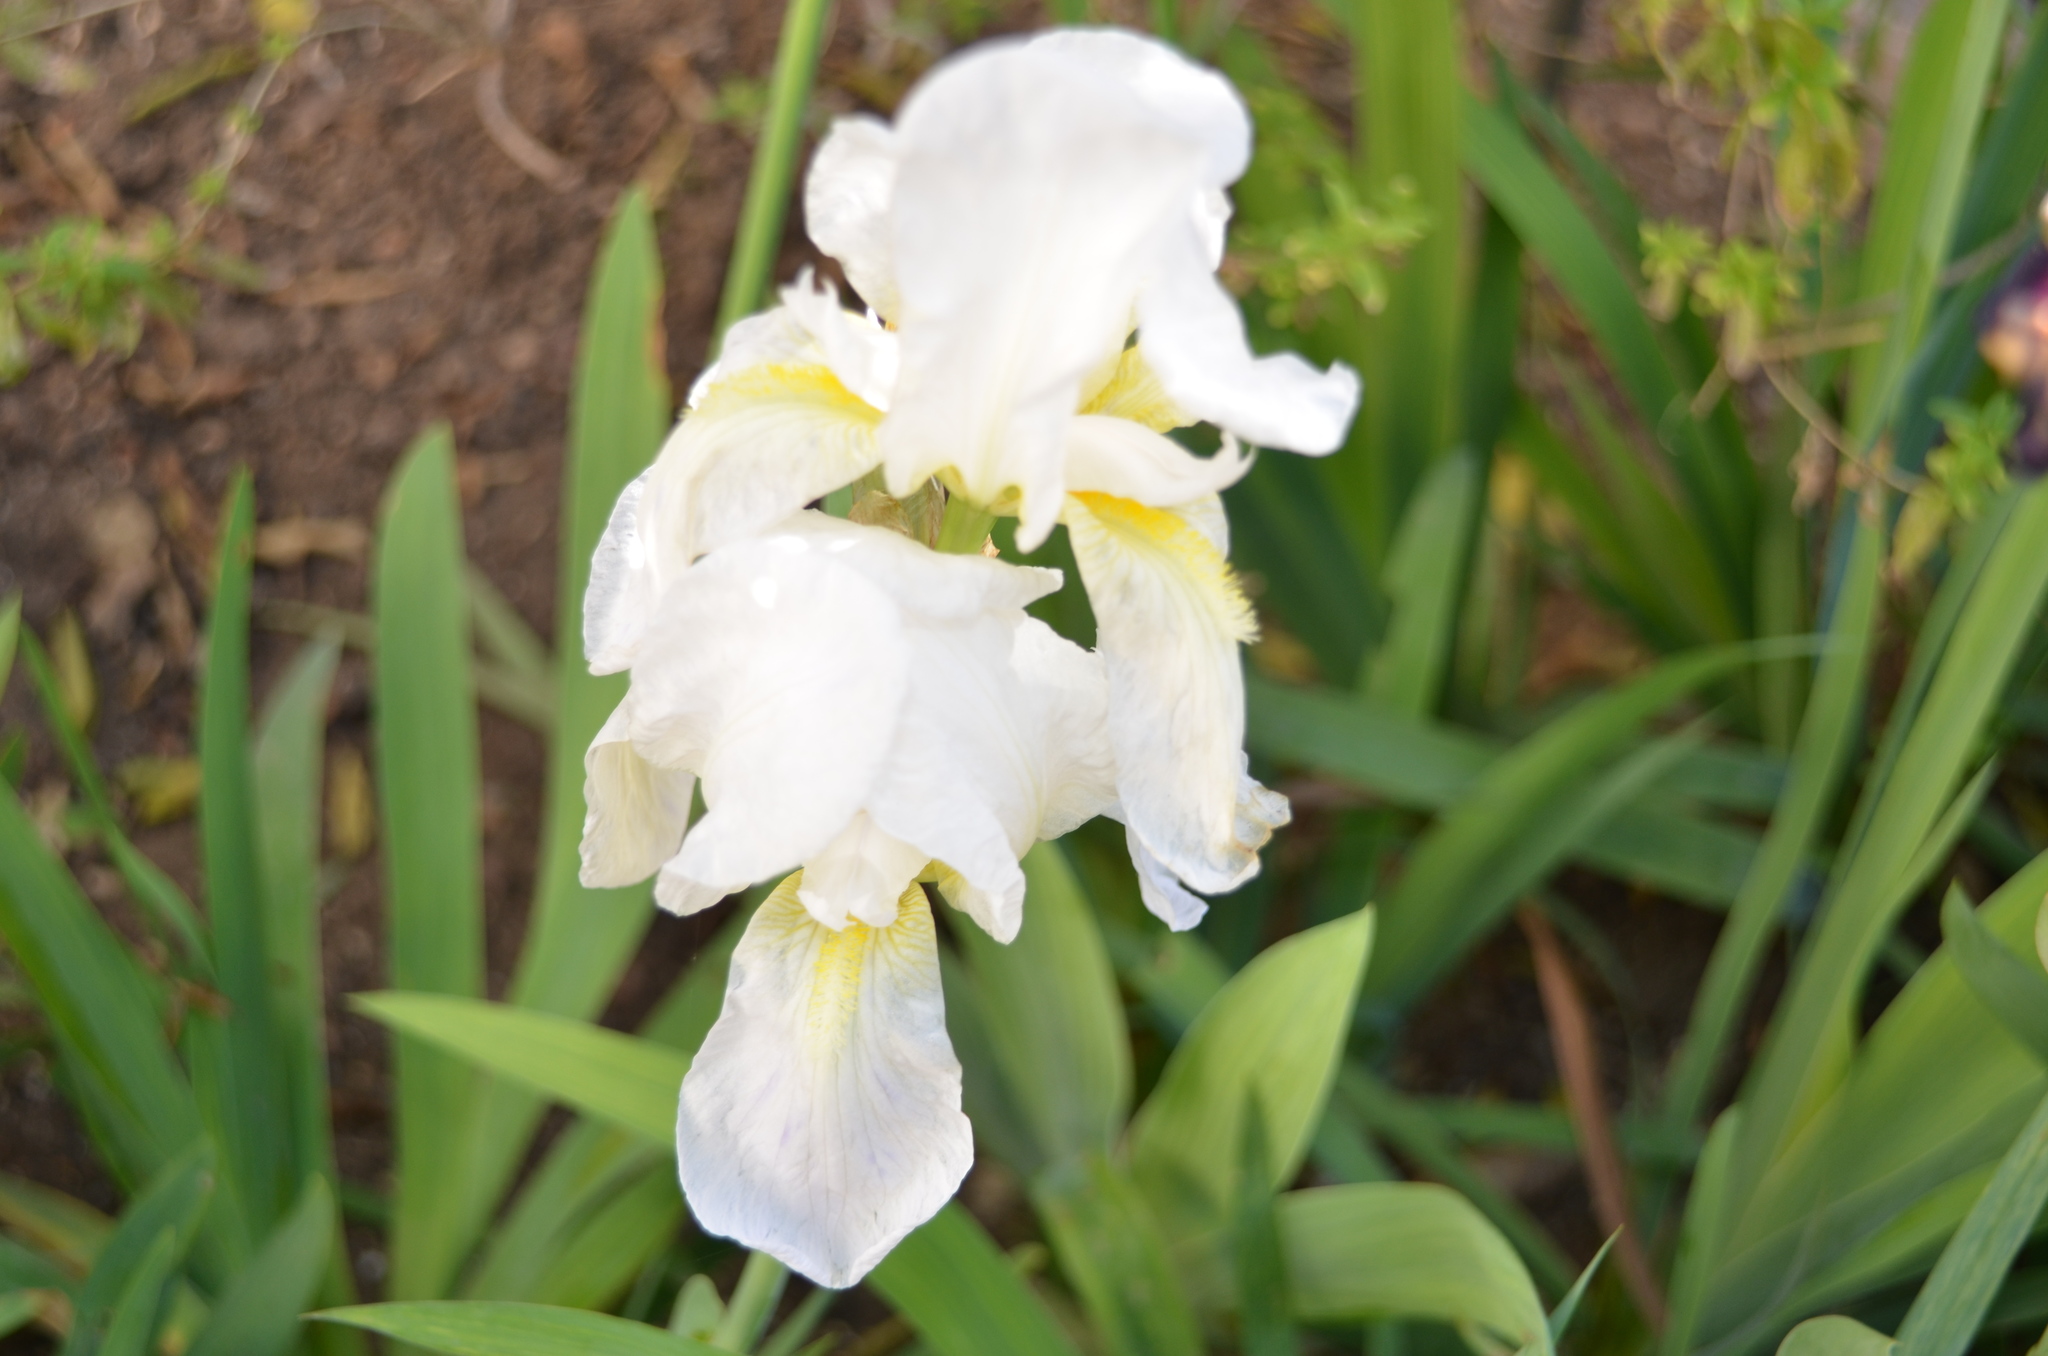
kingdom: Plantae
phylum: Tracheophyta
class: Liliopsida
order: Asparagales
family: Iridaceae
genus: Iris
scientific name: Iris florentina
